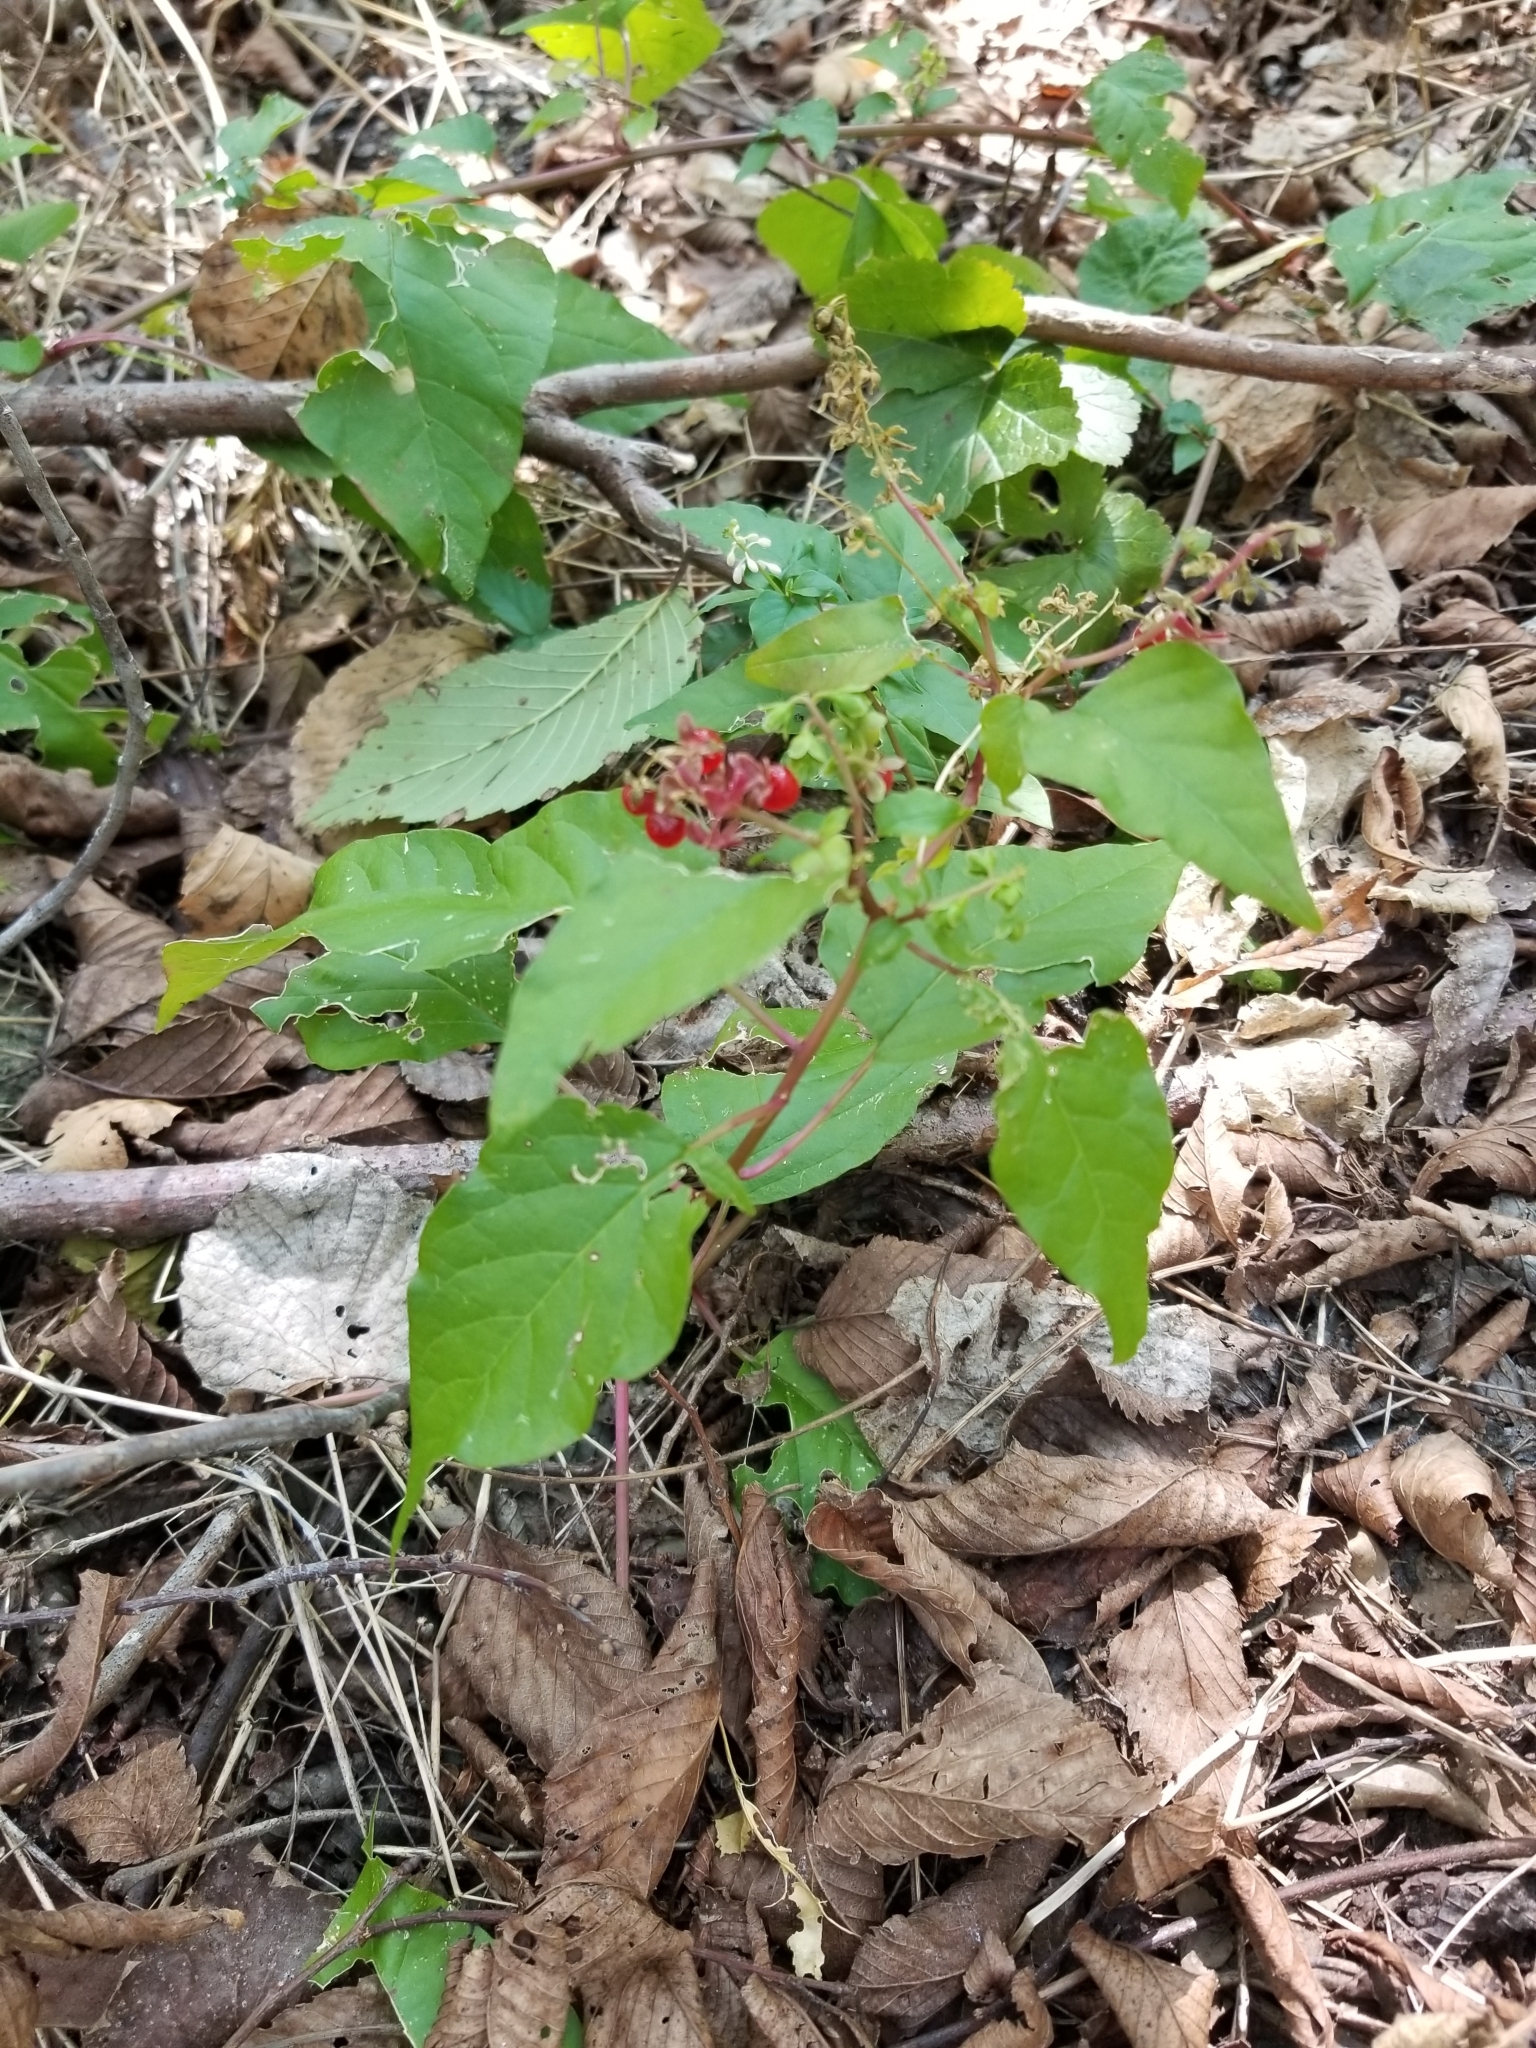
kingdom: Plantae
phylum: Tracheophyta
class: Magnoliopsida
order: Caryophyllales
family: Phytolaccaceae
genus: Rivina
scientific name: Rivina humilis
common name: Rougeplant
